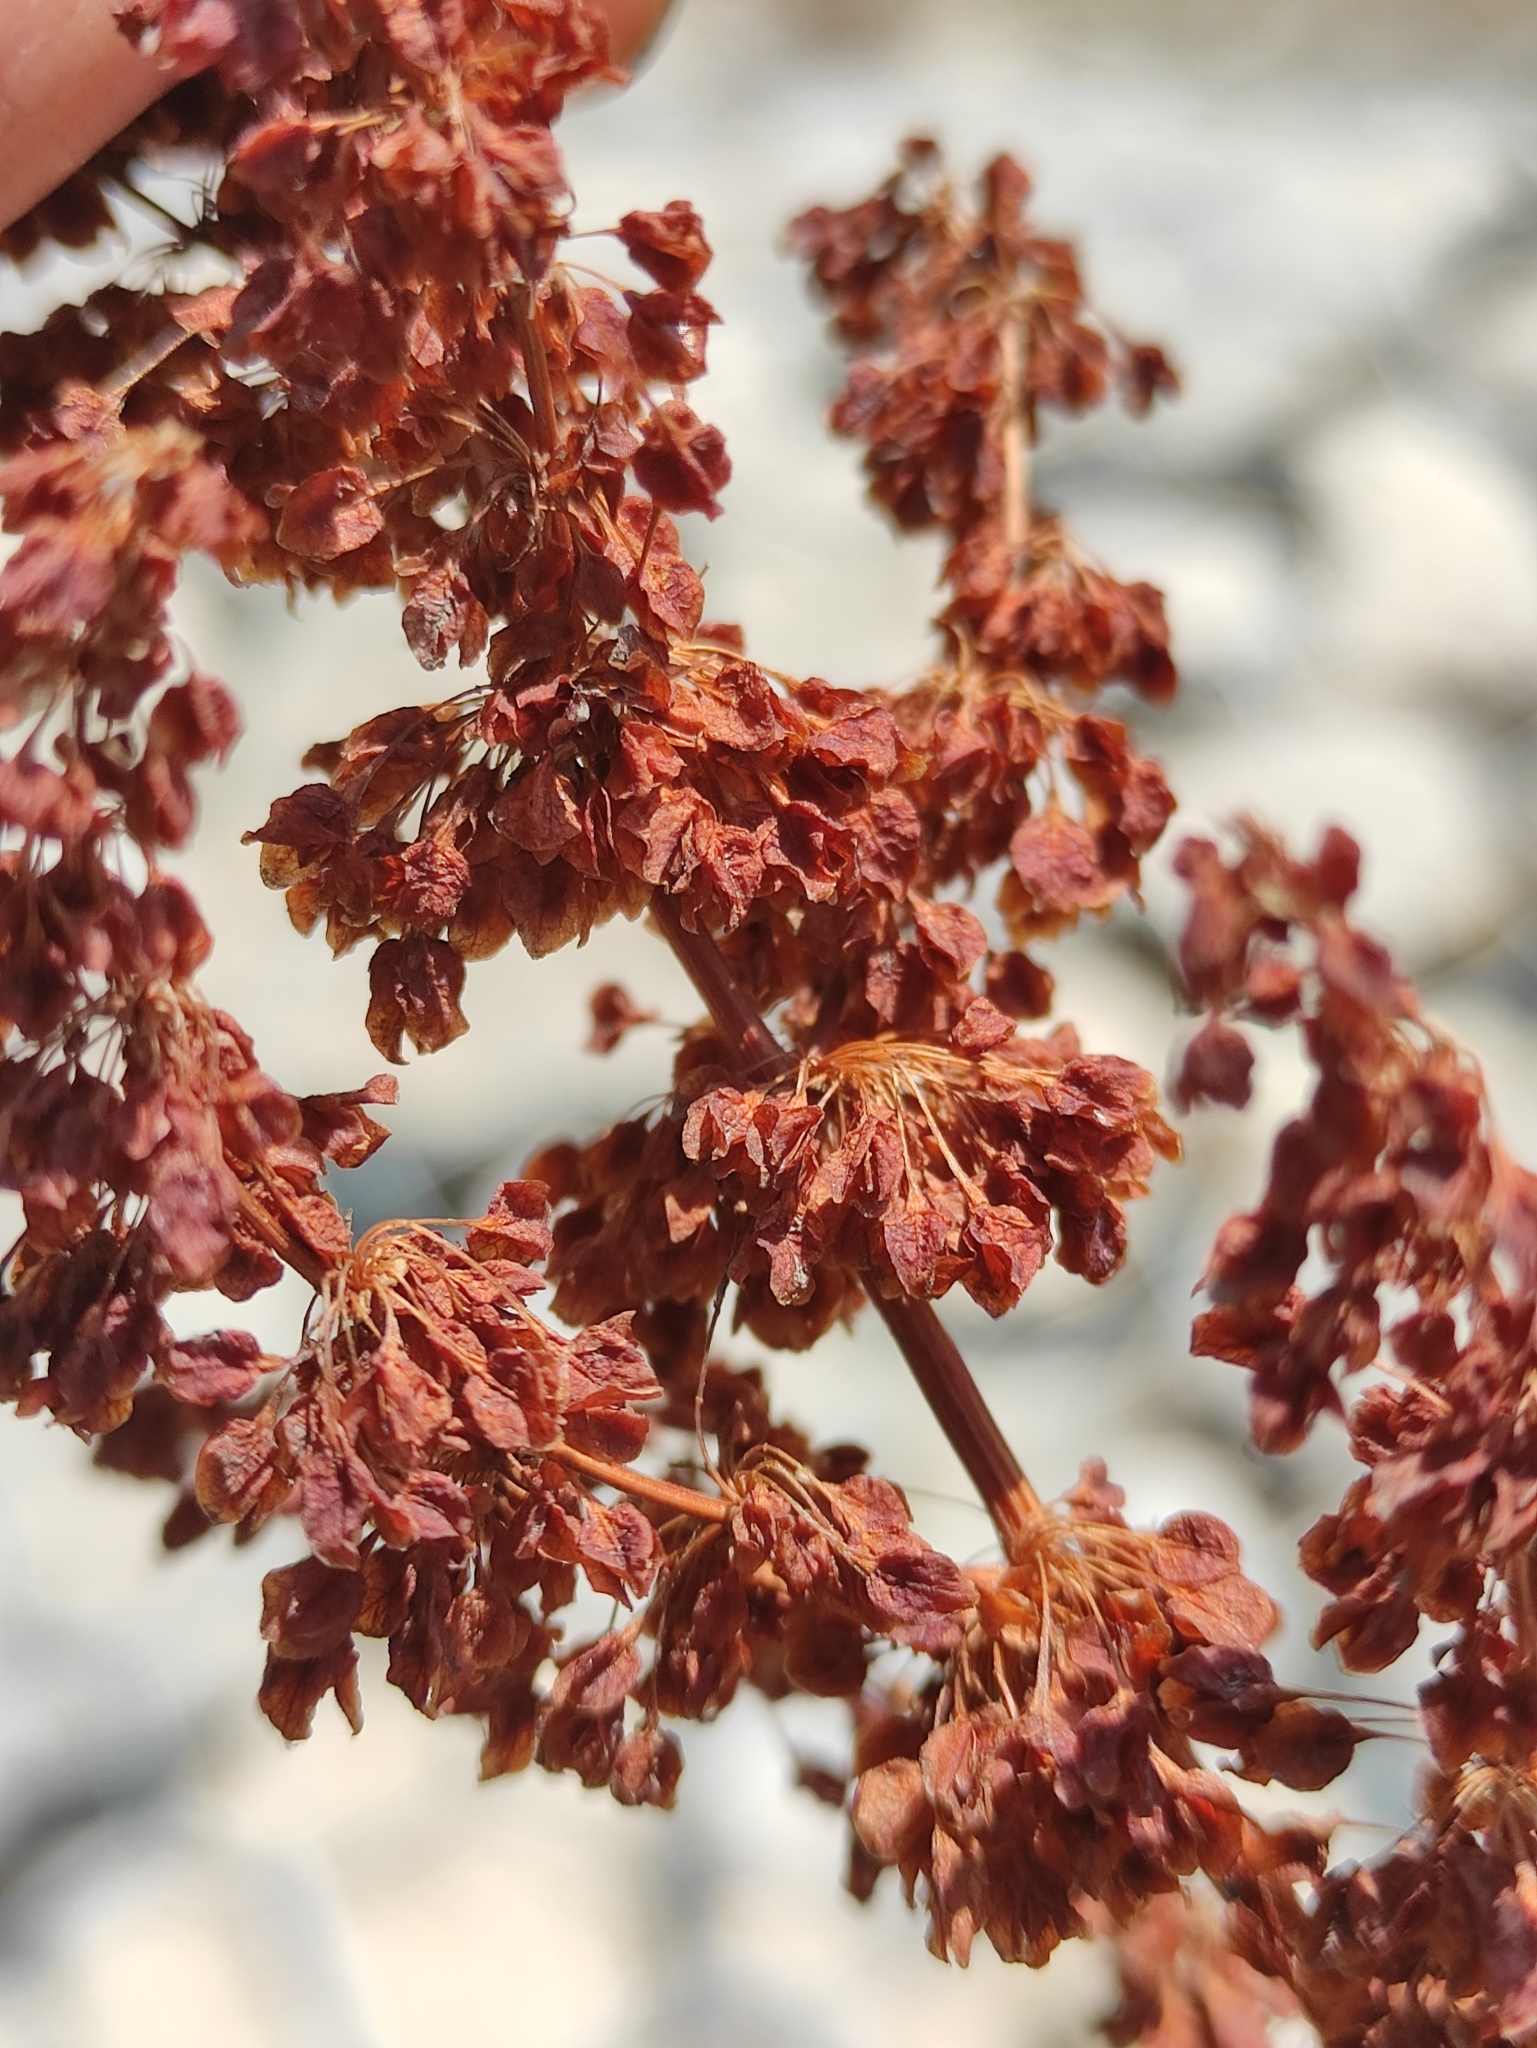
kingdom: Plantae
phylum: Tracheophyta
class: Magnoliopsida
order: Caryophyllales
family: Polygonaceae
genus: Rumex
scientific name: Rumex pseudonatronatus
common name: Field dock
